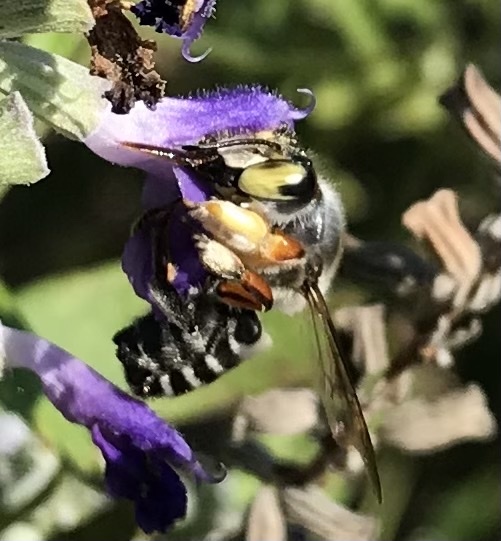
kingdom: Animalia
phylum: Arthropoda
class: Insecta
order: Hymenoptera
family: Megachilidae
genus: Megachile
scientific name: Megachile policaris
